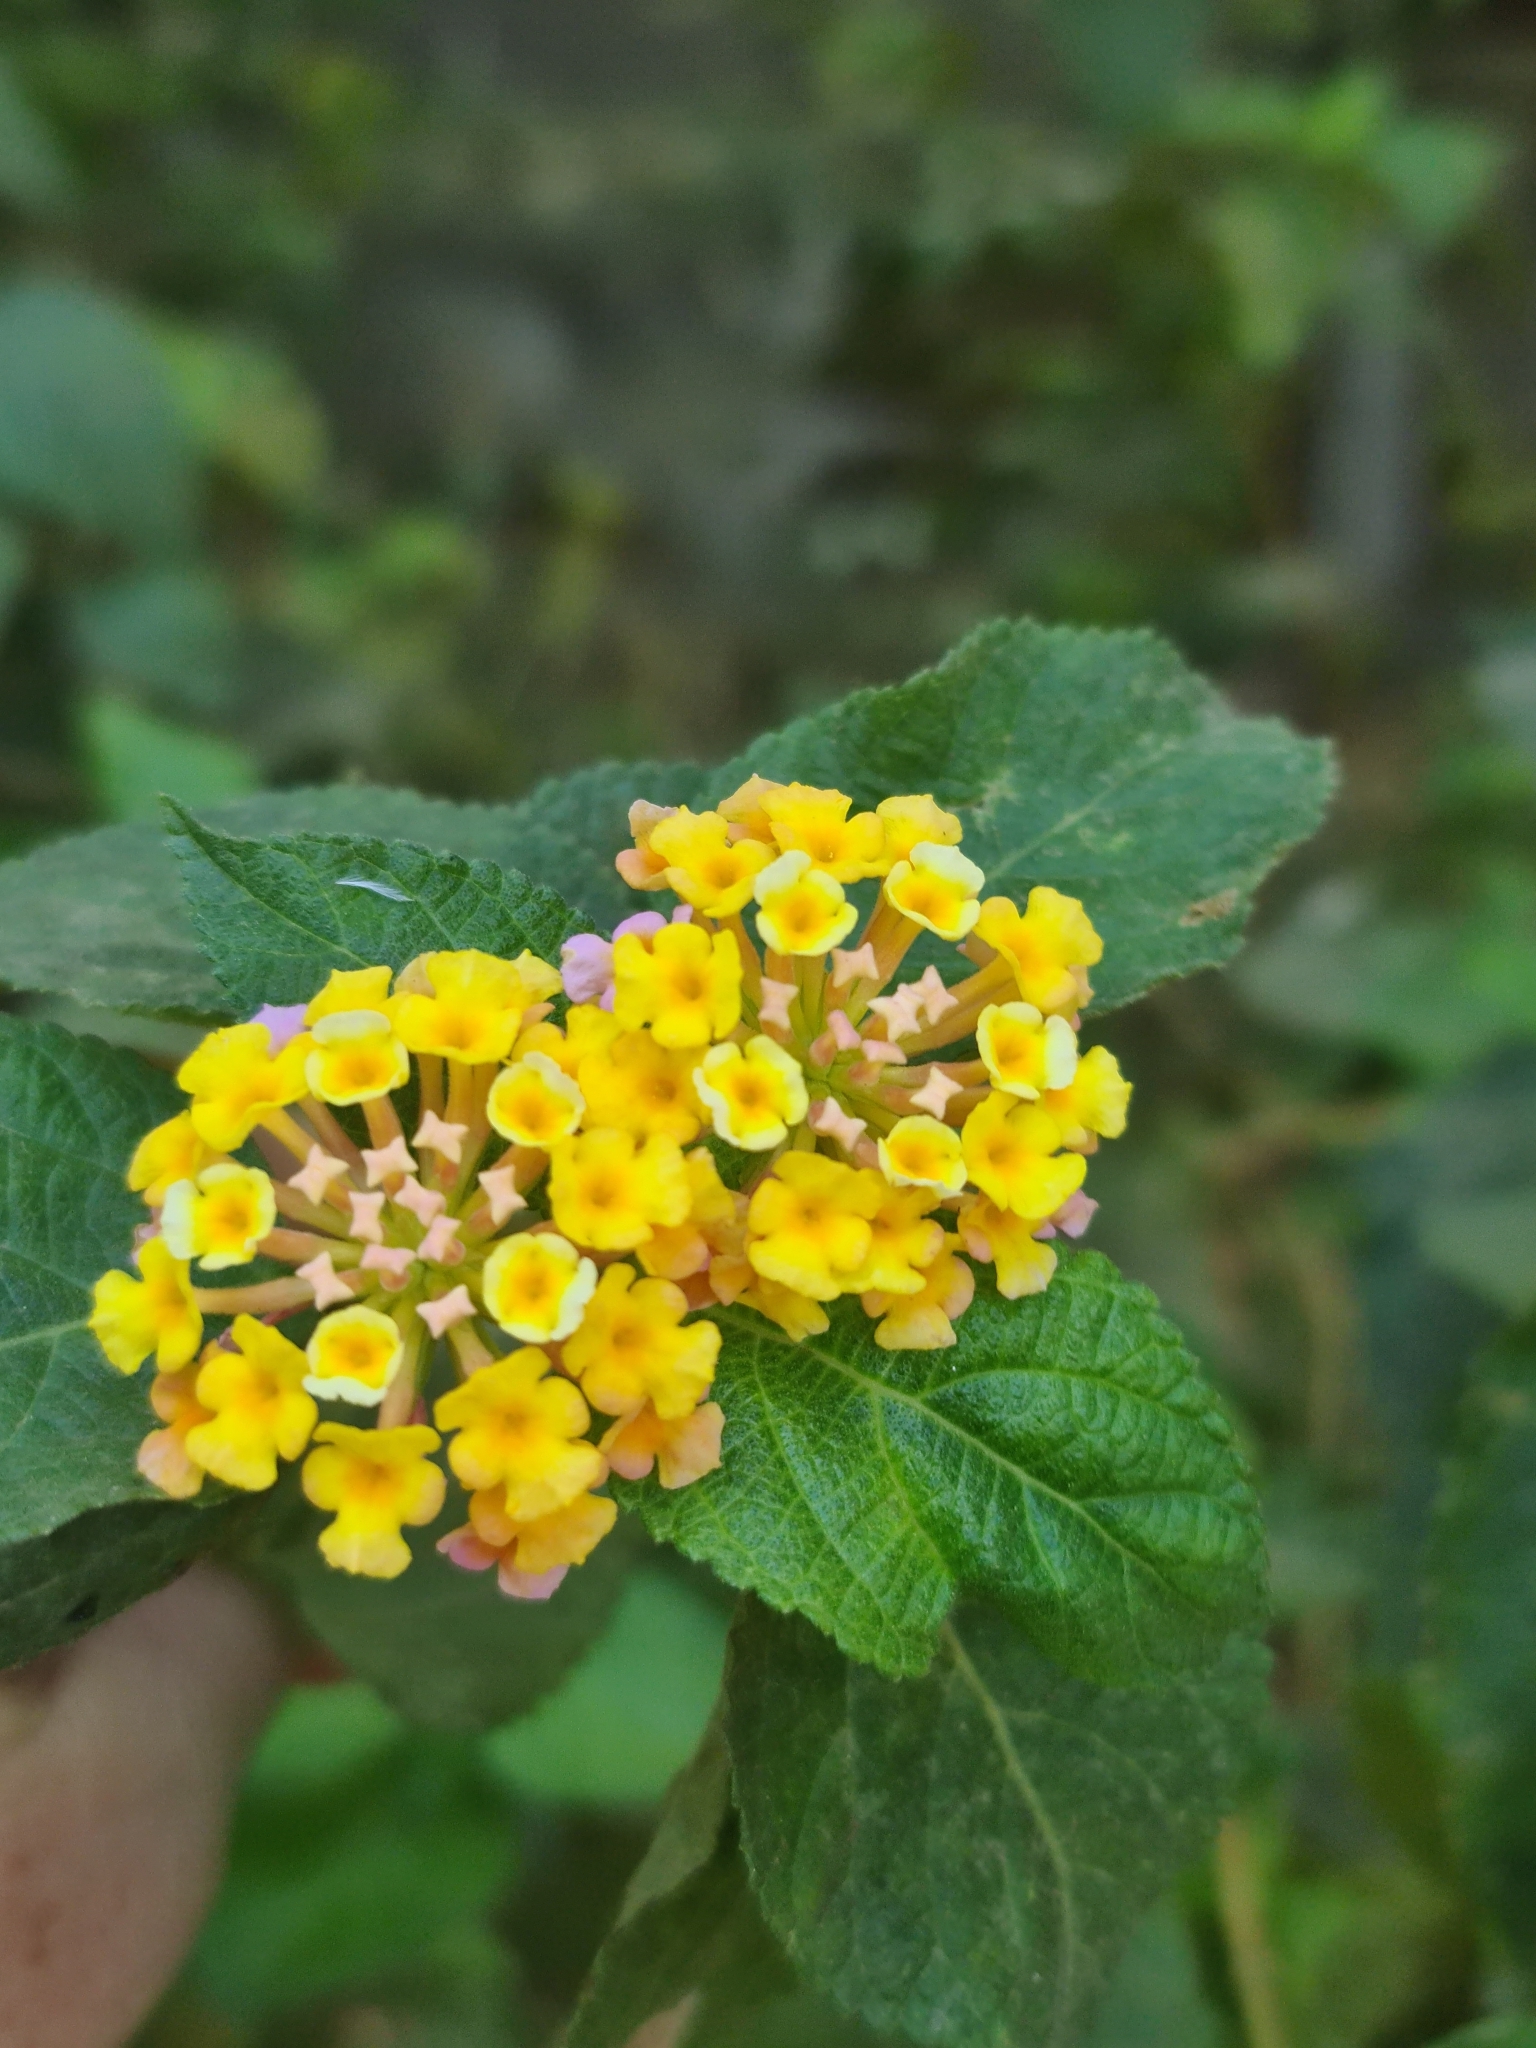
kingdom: Plantae
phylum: Tracheophyta
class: Magnoliopsida
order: Lamiales
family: Verbenaceae
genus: Lantana
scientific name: Lantana camara
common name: Lantana
